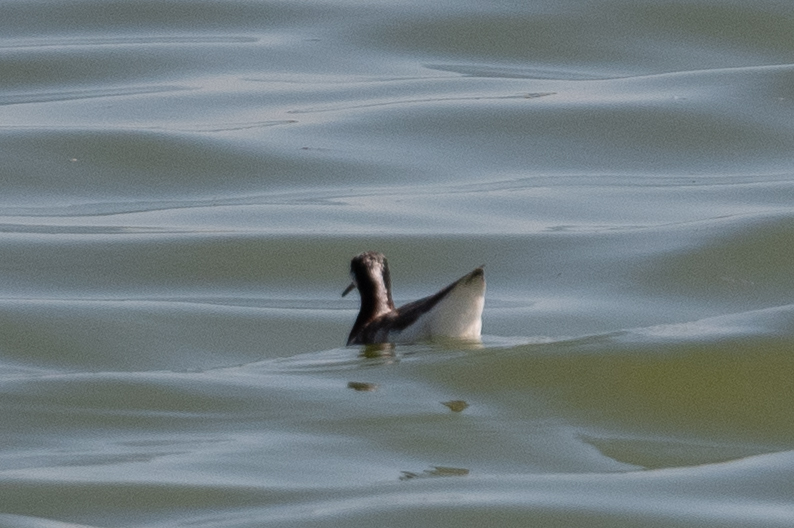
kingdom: Animalia
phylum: Chordata
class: Aves
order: Charadriiformes
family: Scolopacidae
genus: Phalaropus
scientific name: Phalaropus tricolor
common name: Wilson's phalarope
